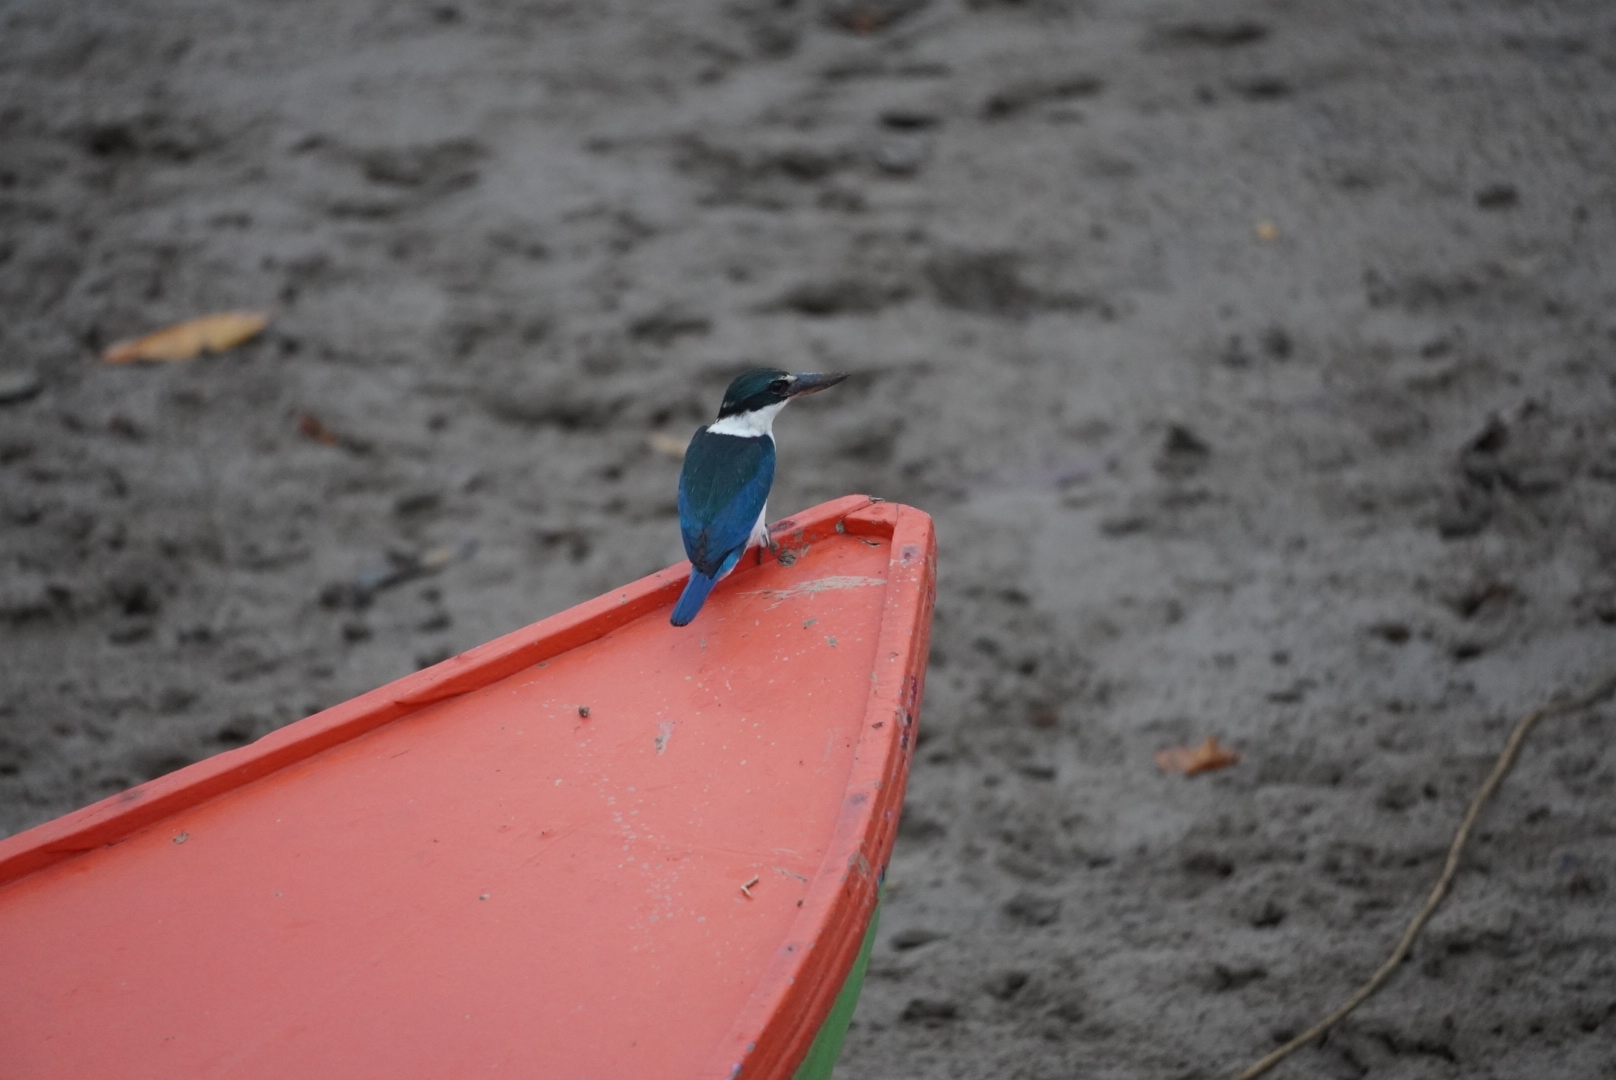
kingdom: Animalia
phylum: Chordata
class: Aves
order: Coraciiformes
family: Alcedinidae
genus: Todiramphus
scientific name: Todiramphus chloris
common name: Collared kingfisher
